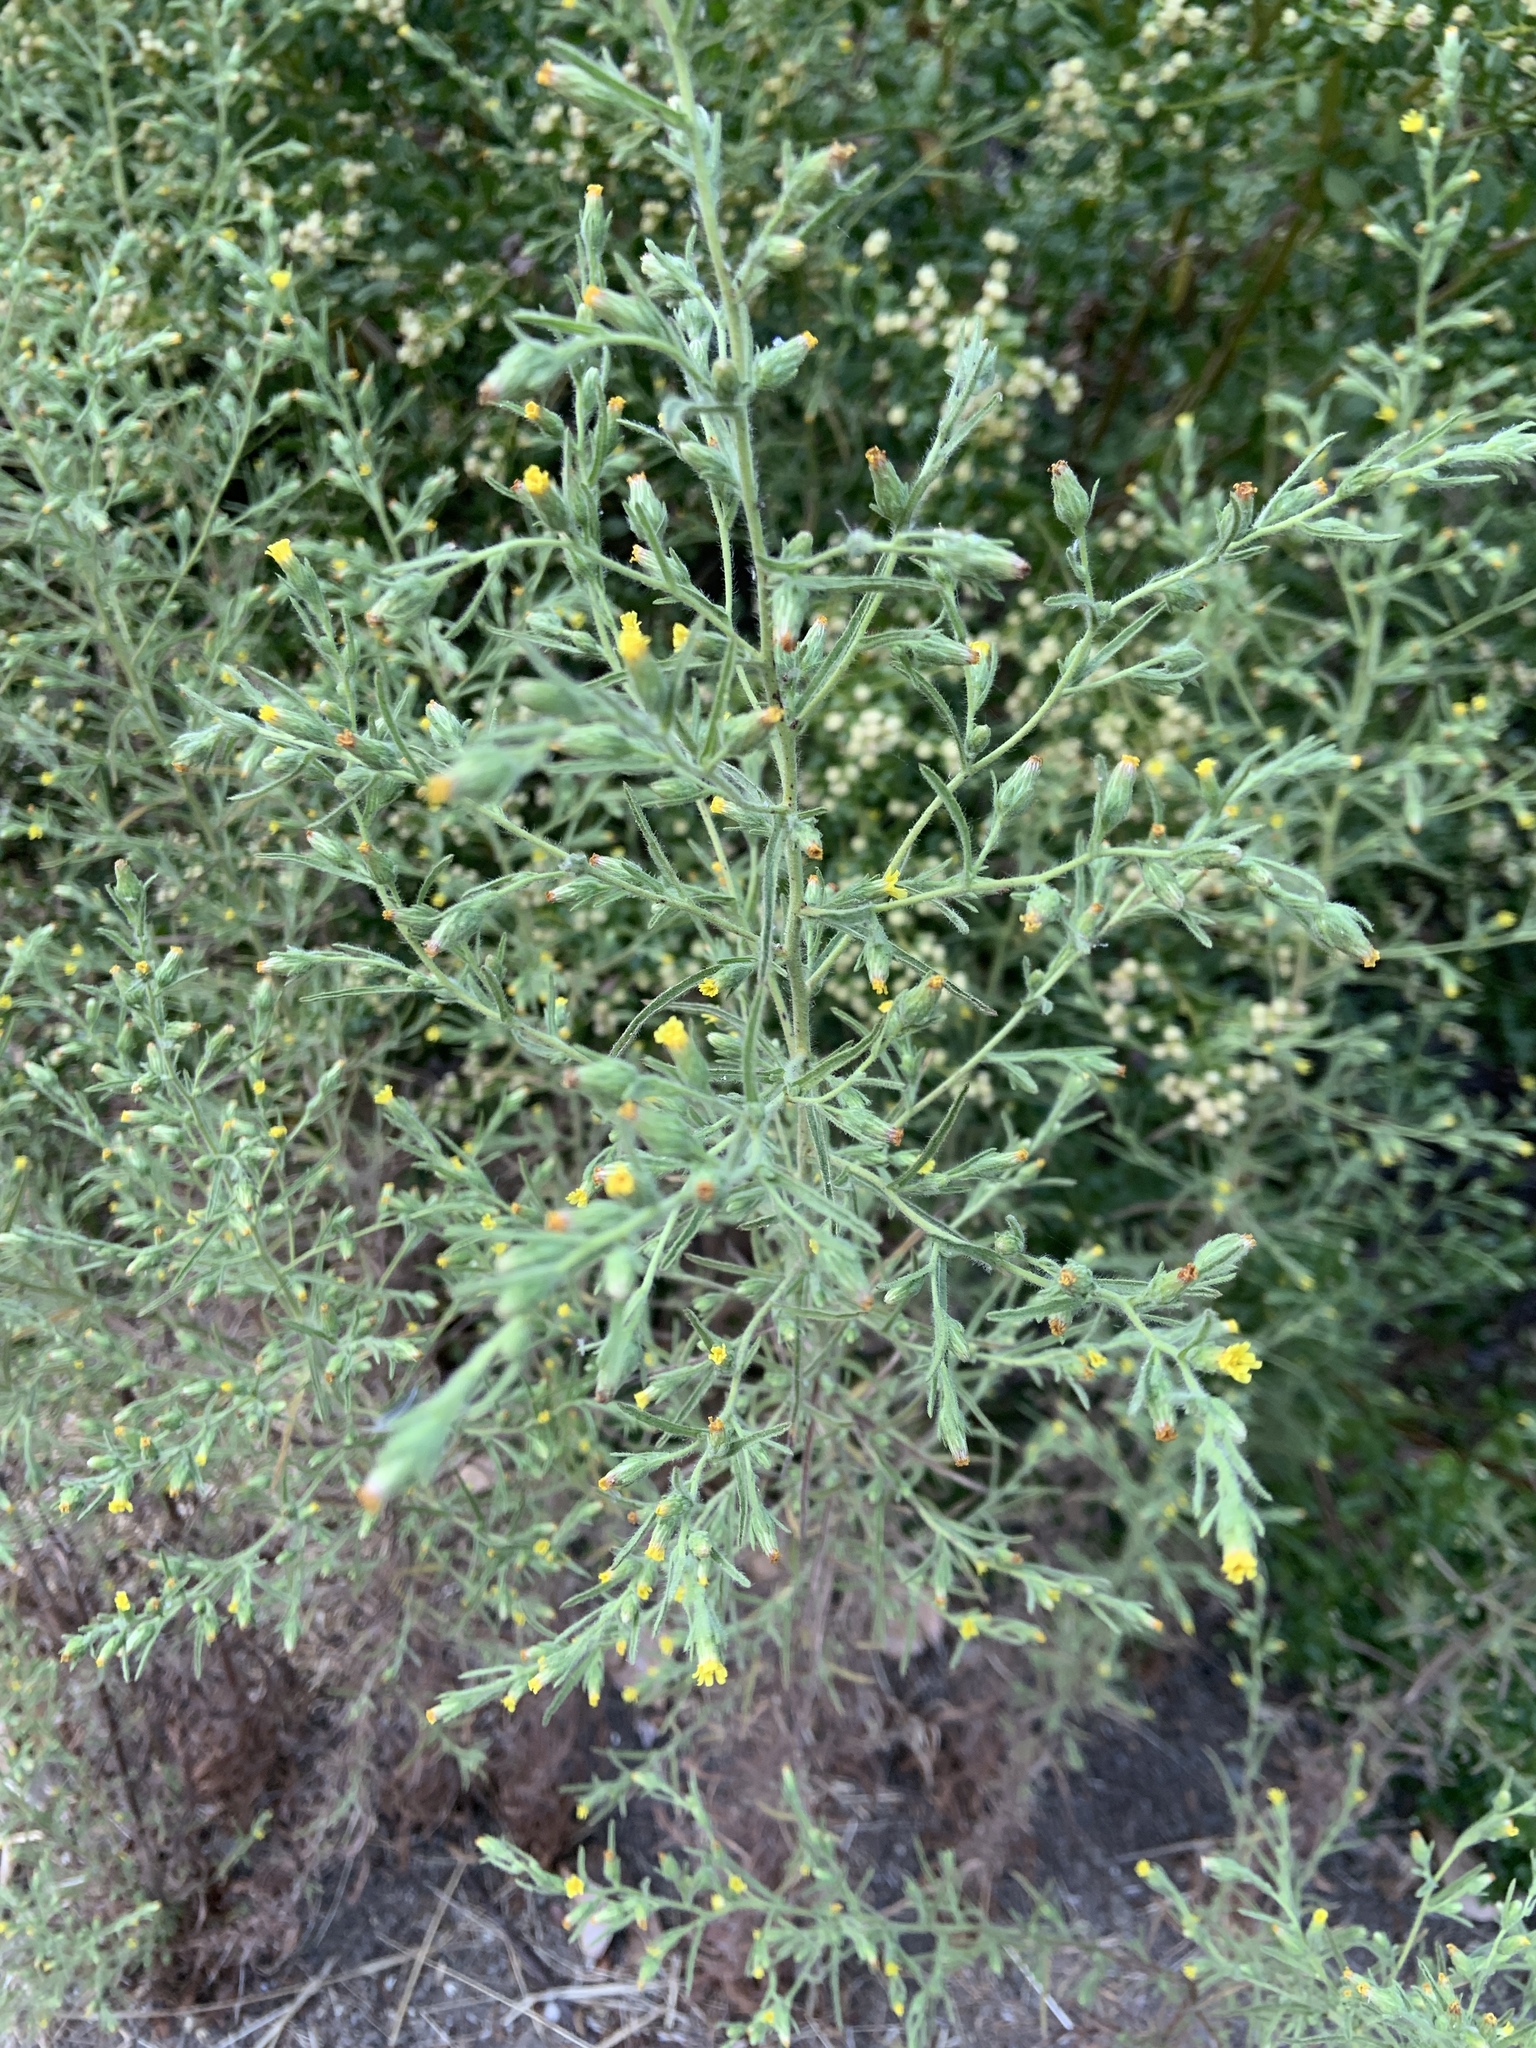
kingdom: Plantae
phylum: Tracheophyta
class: Magnoliopsida
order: Asterales
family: Asteraceae
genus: Dittrichia
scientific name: Dittrichia graveolens
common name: Stinking fleabane
